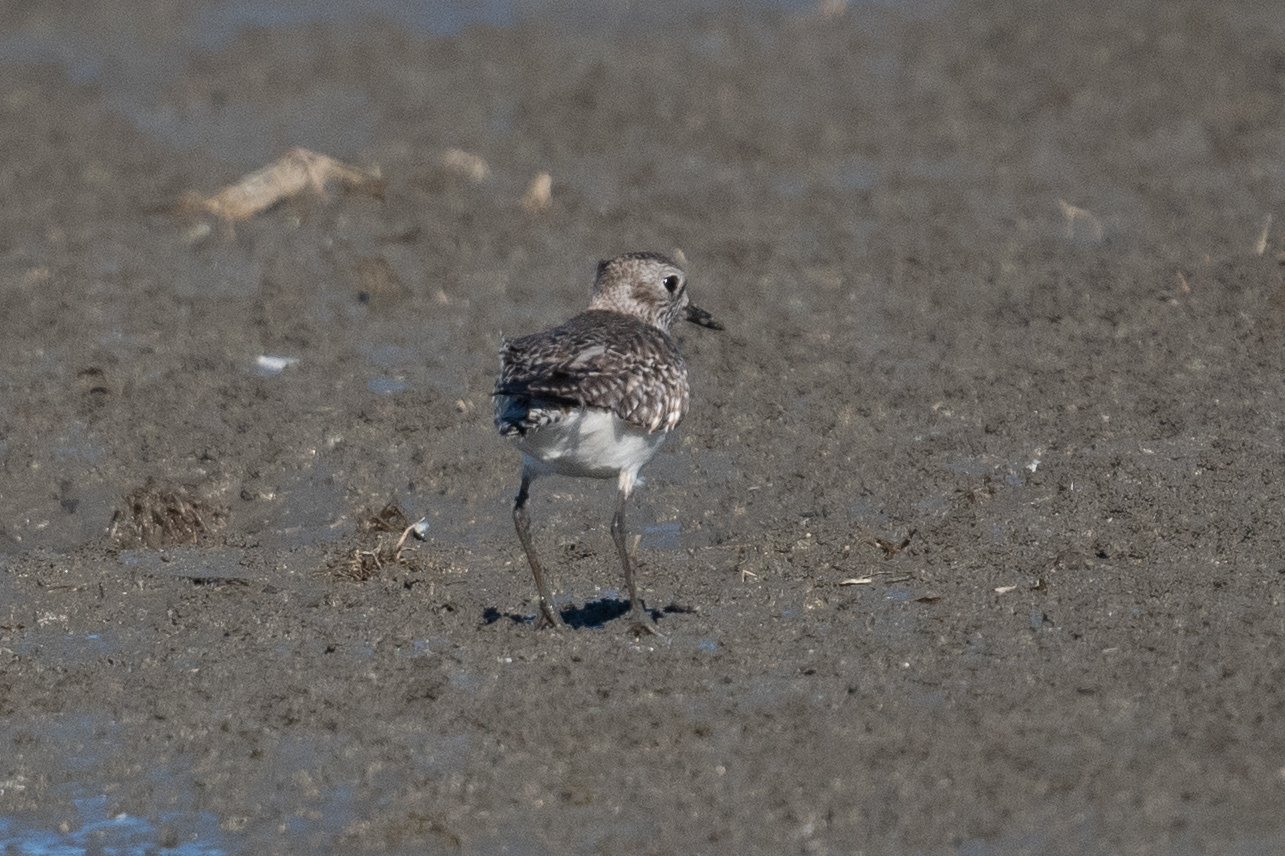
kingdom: Animalia
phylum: Chordata
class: Aves
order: Charadriiformes
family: Charadriidae
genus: Pluvialis
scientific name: Pluvialis squatarola
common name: Grey plover
